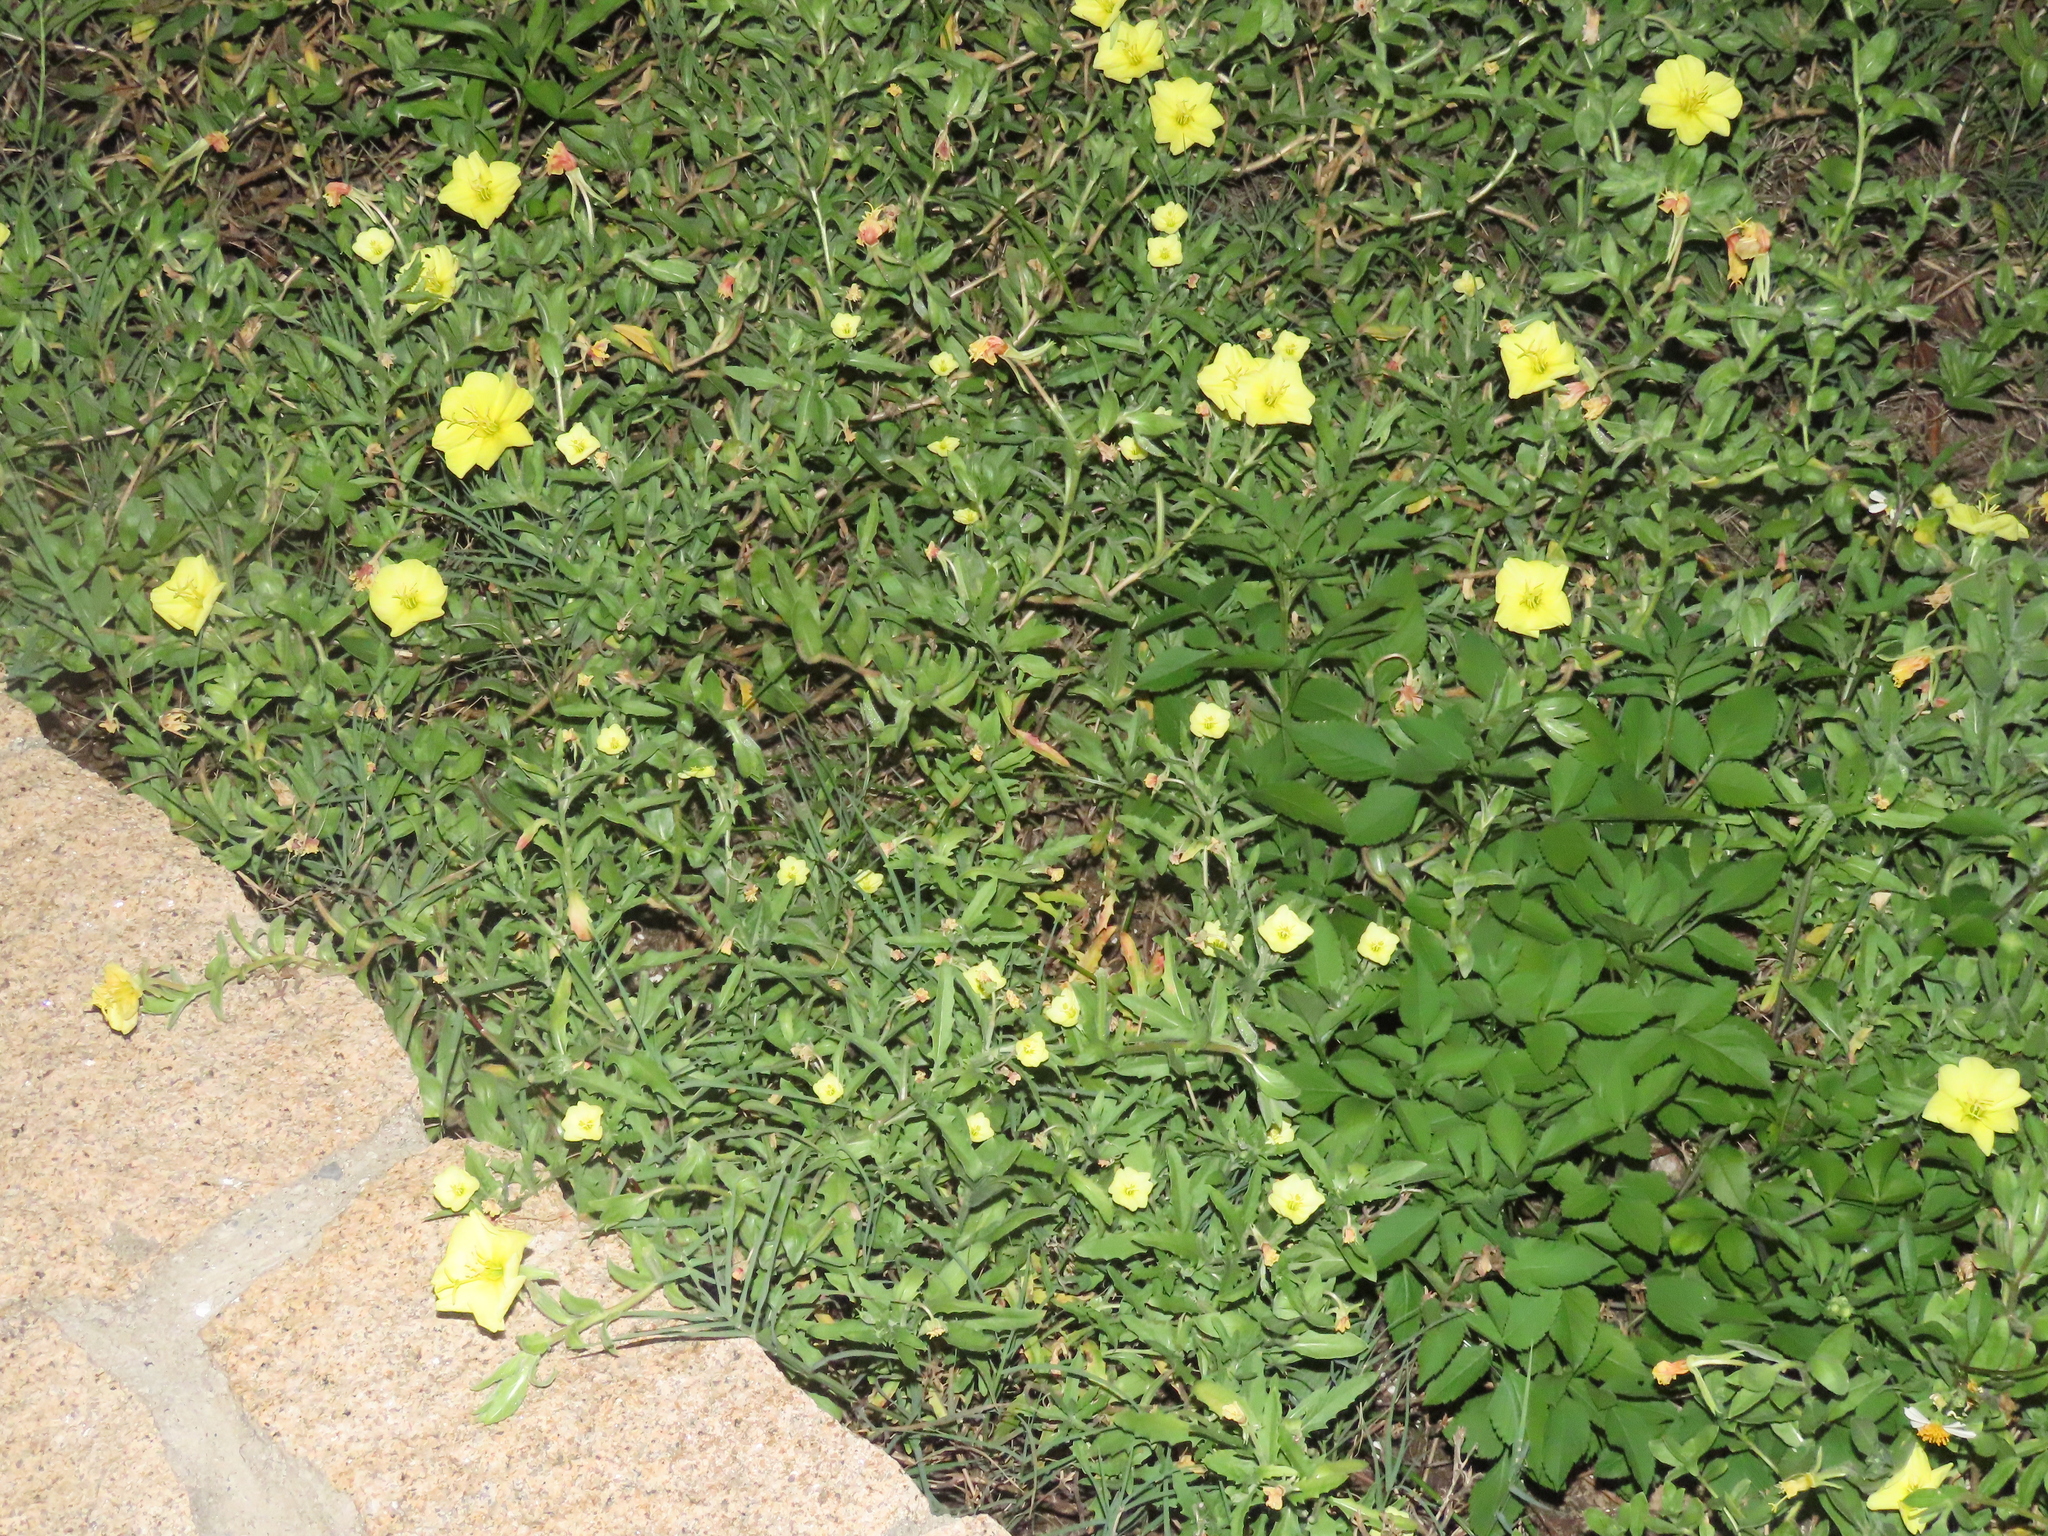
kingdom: Plantae
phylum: Tracheophyta
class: Magnoliopsida
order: Myrtales
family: Onagraceae
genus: Oenothera
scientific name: Oenothera laciniata
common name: Cut-leaved evening-primrose
